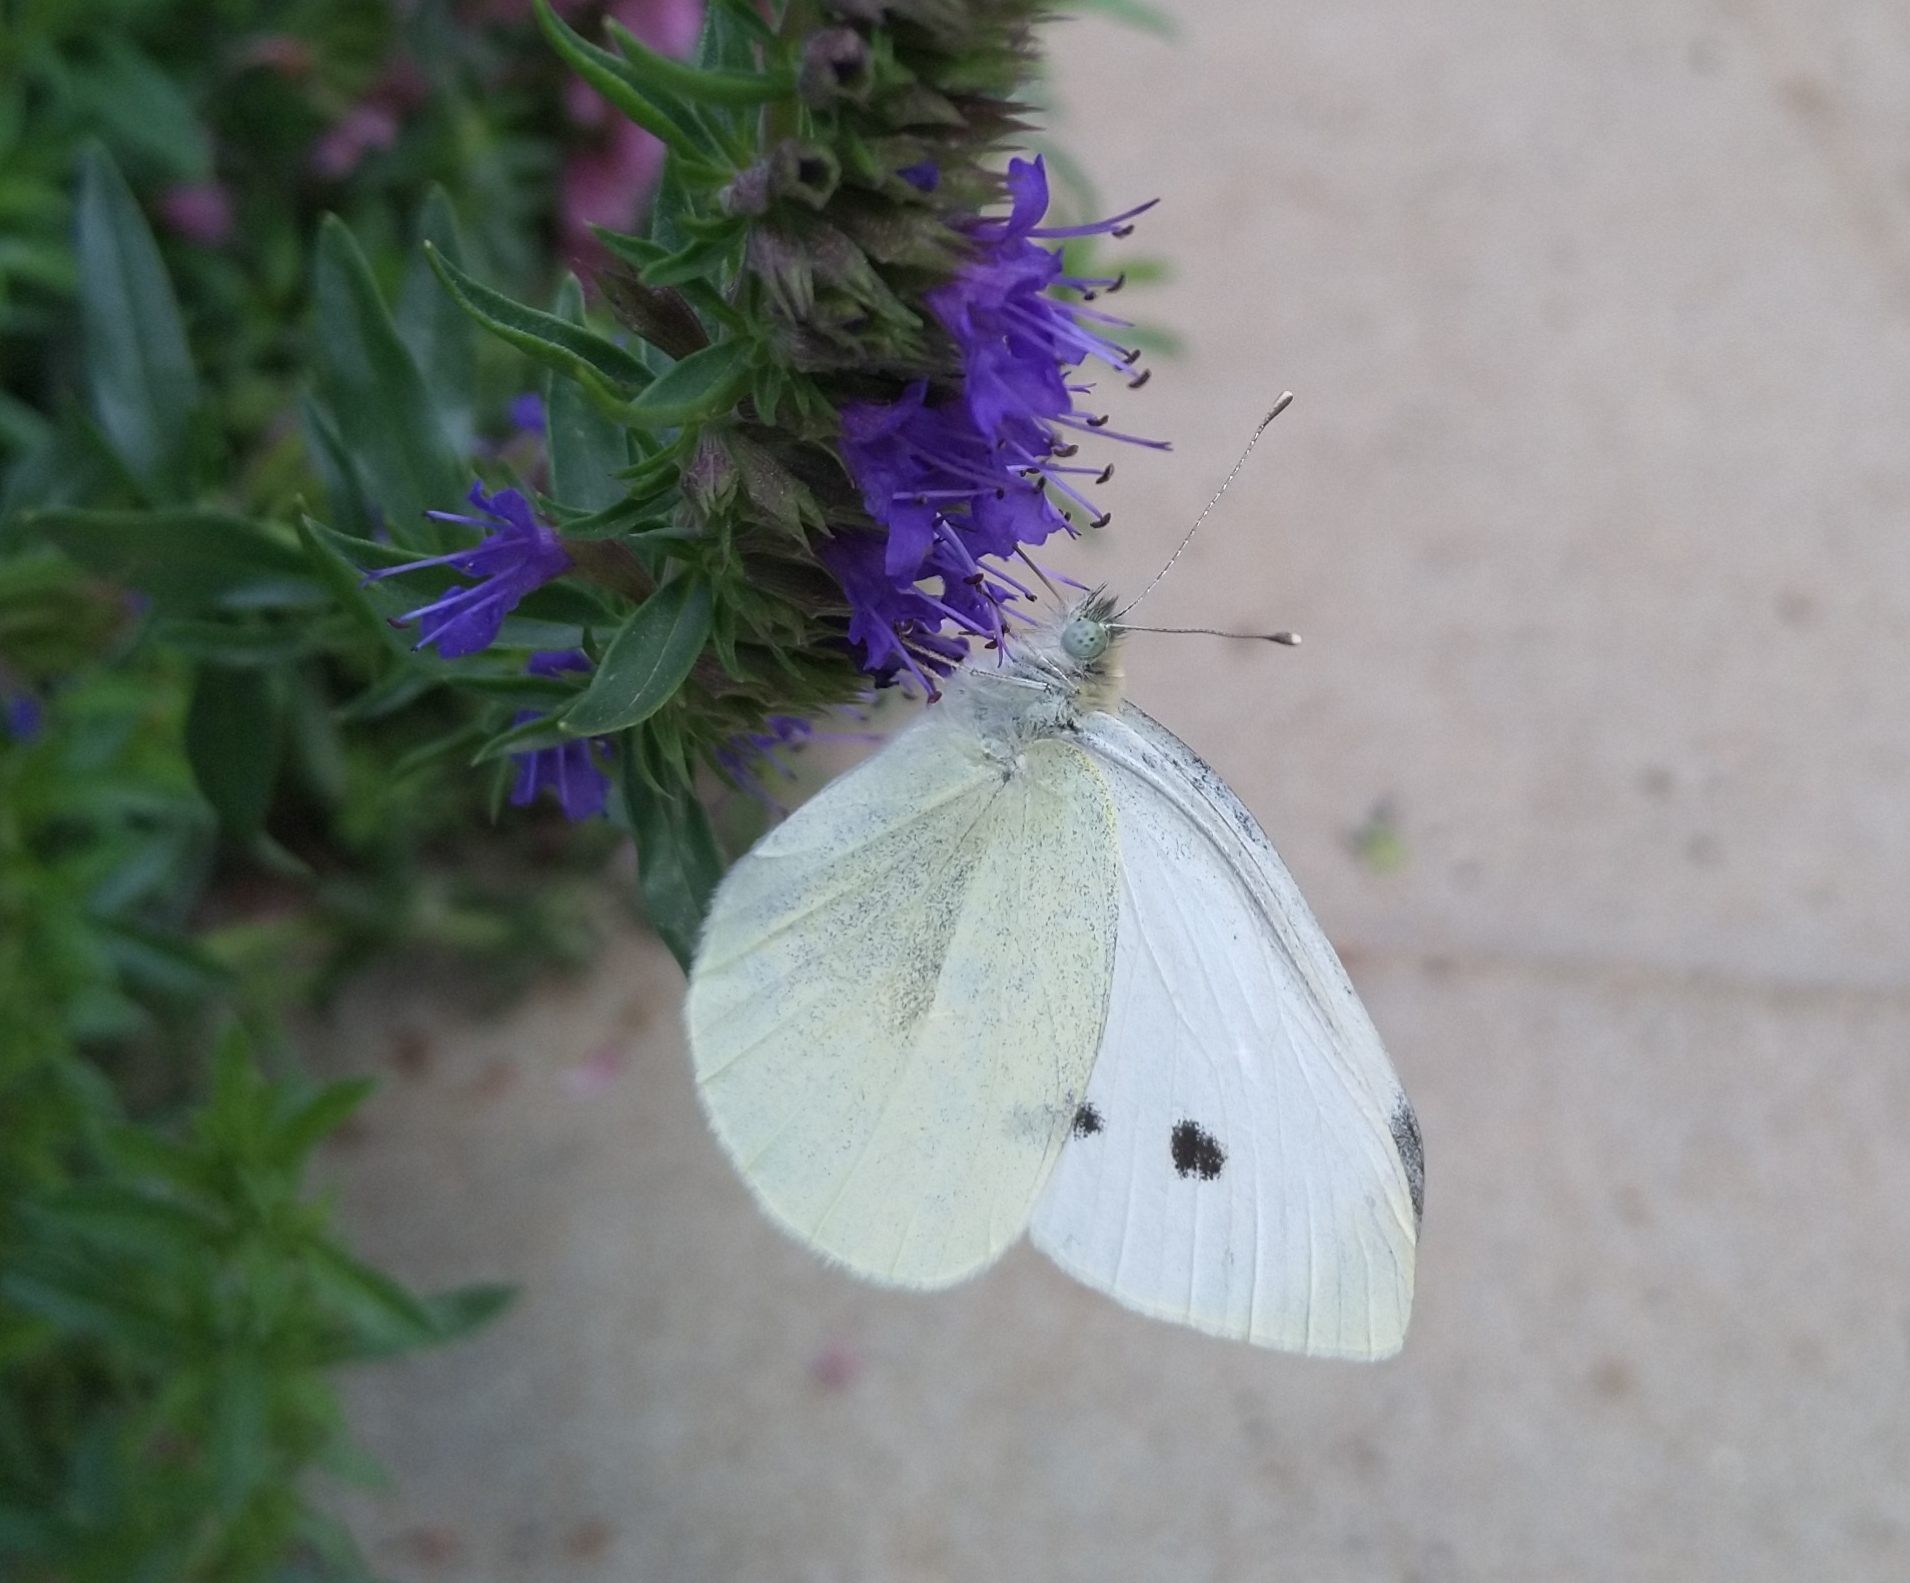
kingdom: Animalia
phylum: Arthropoda
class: Insecta
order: Lepidoptera
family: Pieridae
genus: Pieris
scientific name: Pieris rapae
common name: Small white
